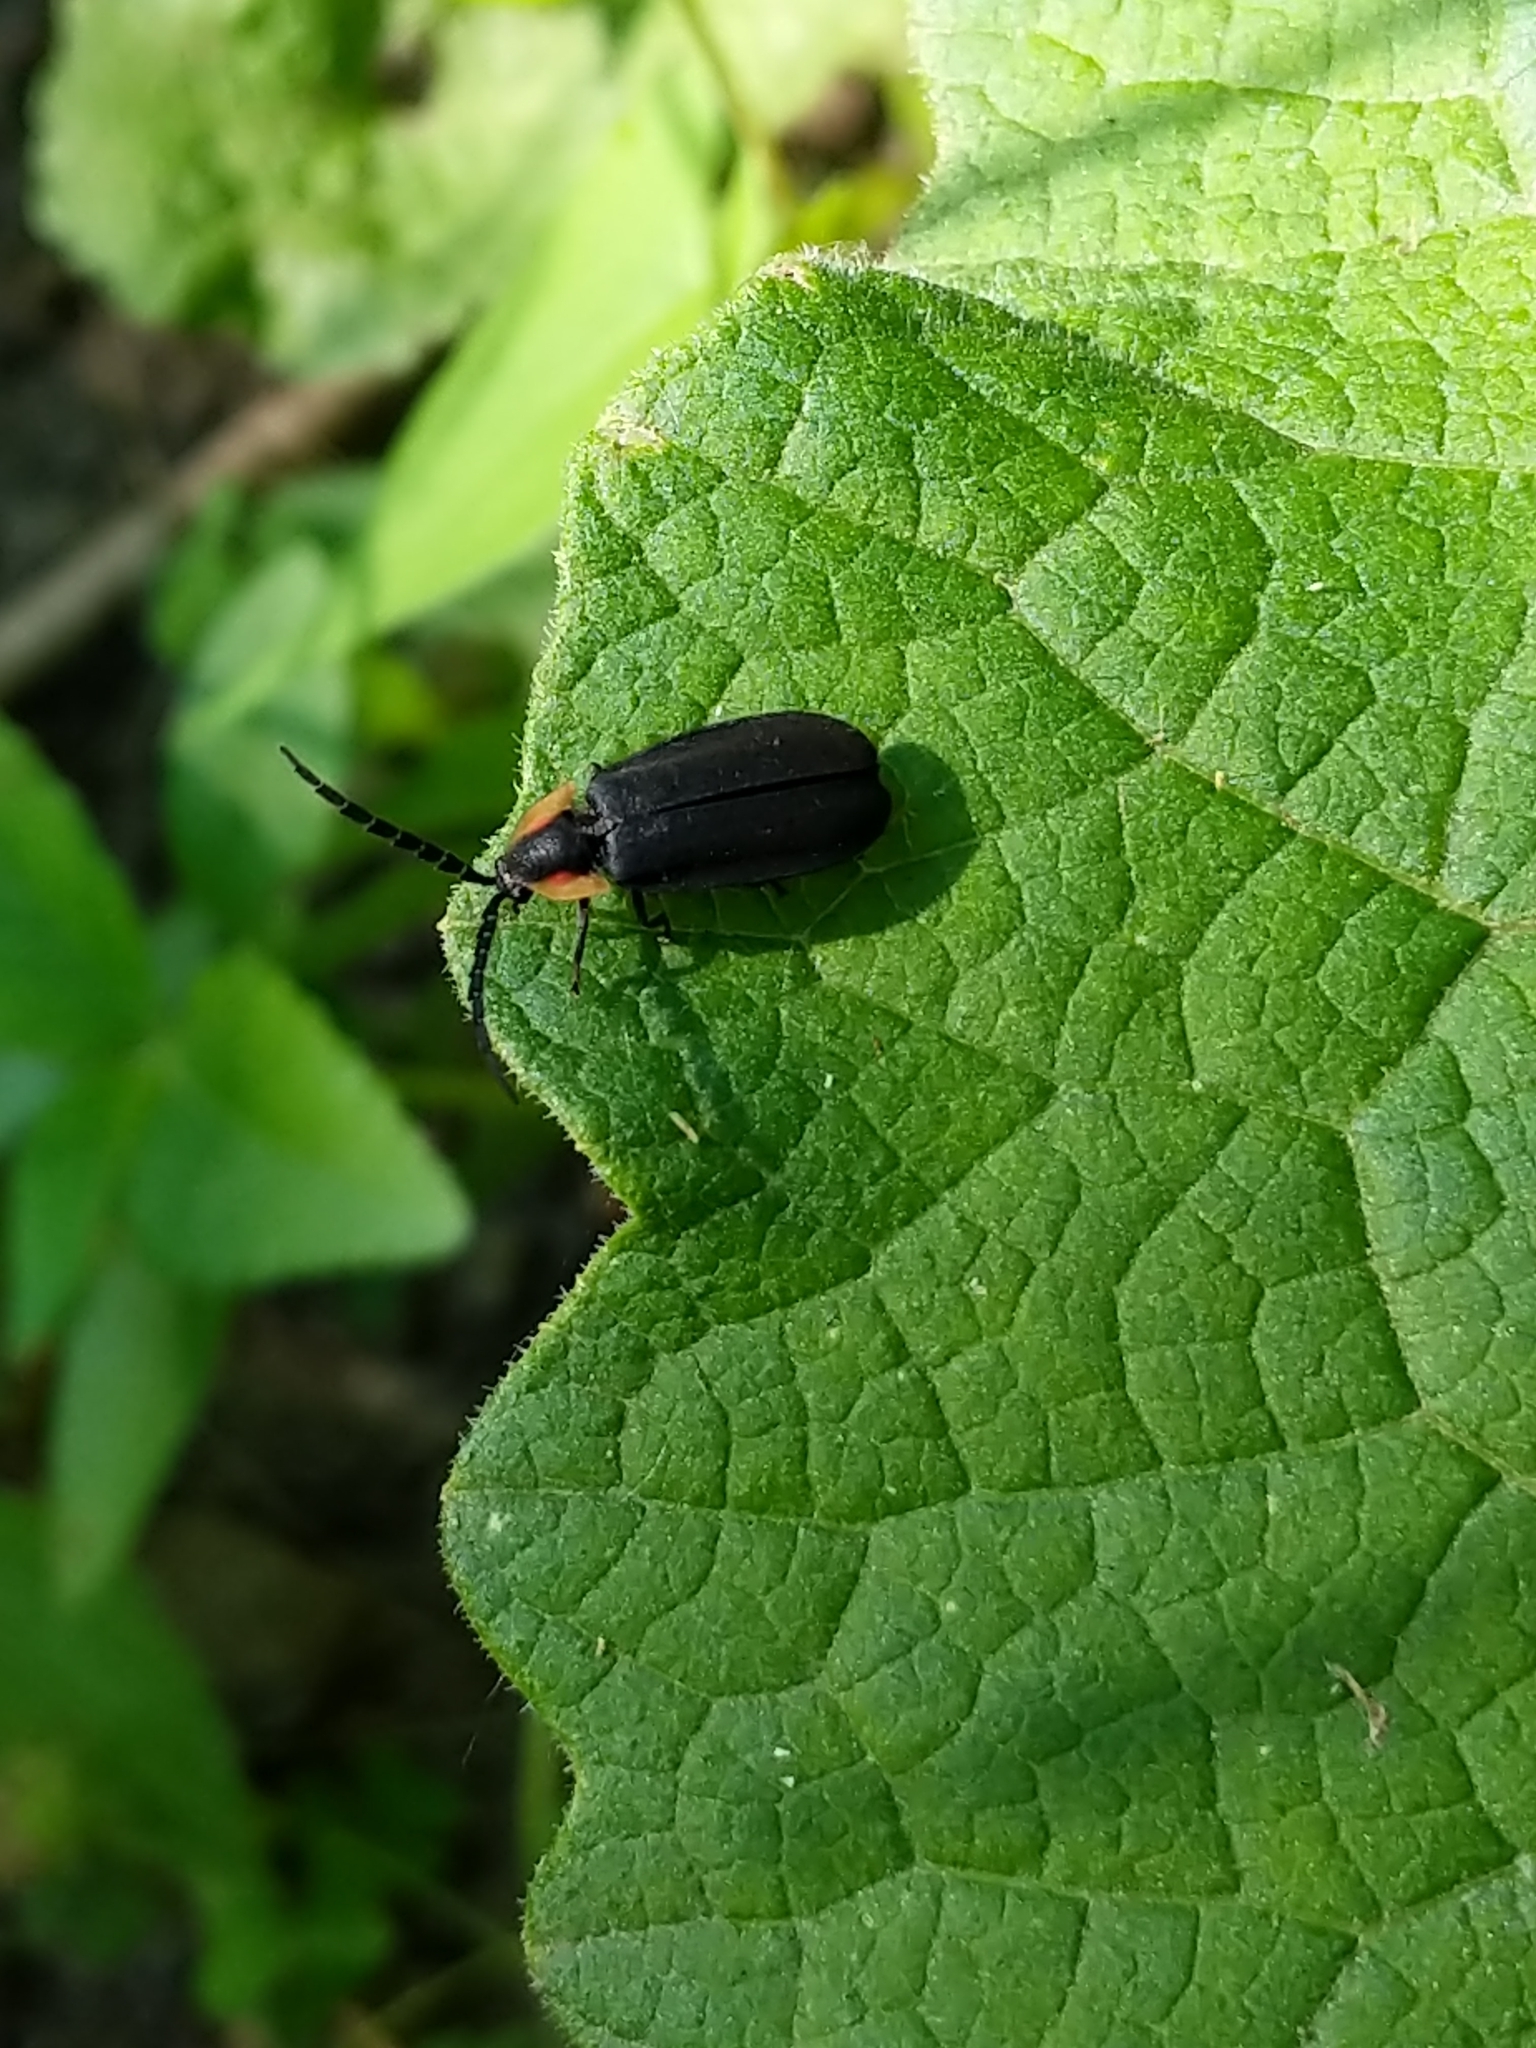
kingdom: Animalia
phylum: Arthropoda
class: Insecta
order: Coleoptera
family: Lampyridae
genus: Lucidota
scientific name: Lucidota atra
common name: Black firefly
